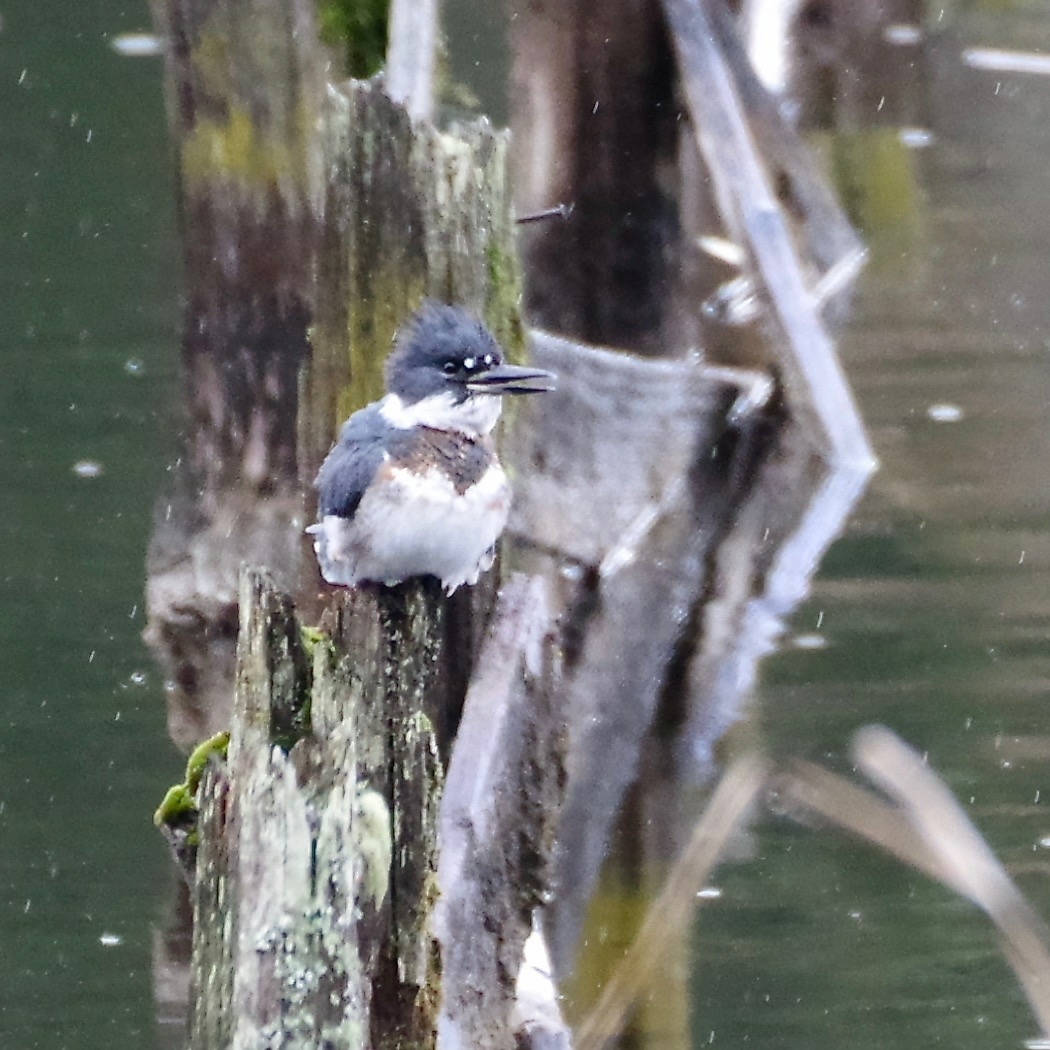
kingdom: Animalia
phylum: Chordata
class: Aves
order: Coraciiformes
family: Alcedinidae
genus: Megaceryle
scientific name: Megaceryle alcyon
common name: Belted kingfisher
